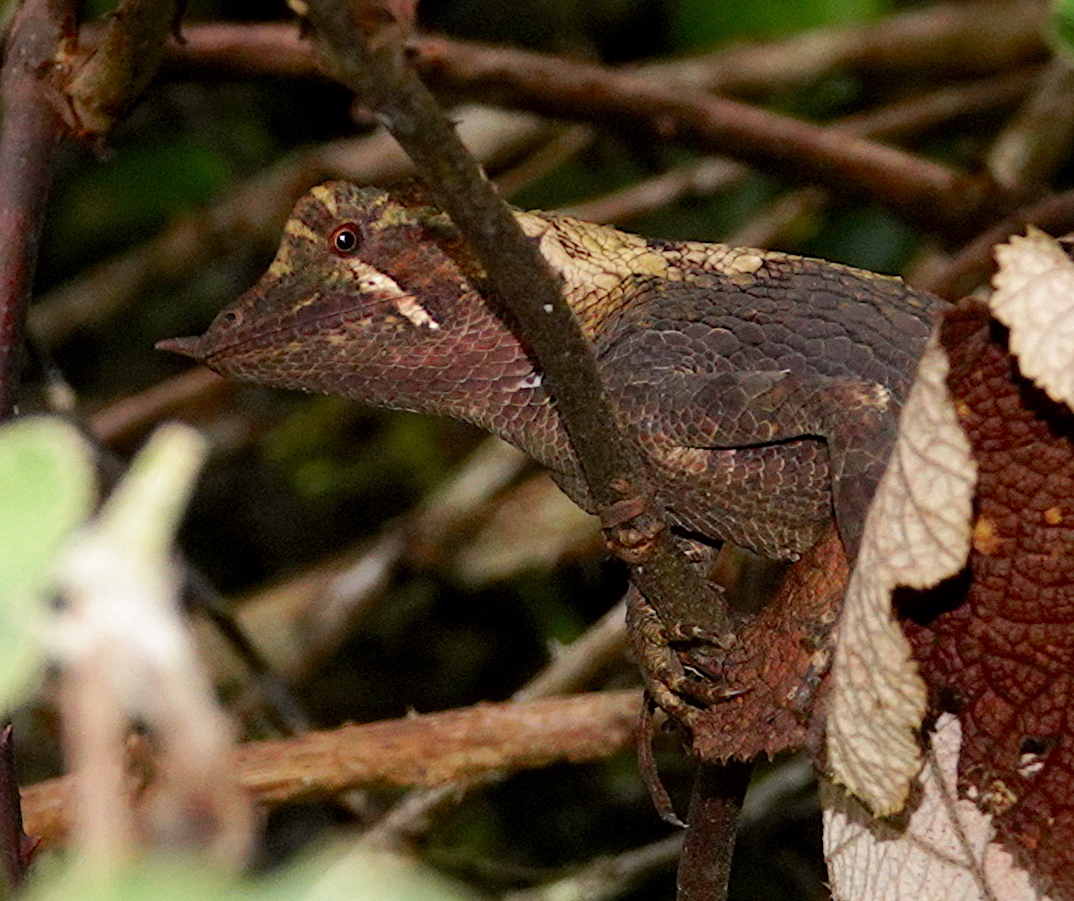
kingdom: Animalia
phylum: Chordata
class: Squamata
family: Agamidae
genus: Ceratophora
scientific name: Ceratophora stoddartii
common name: Mountain horned agama
